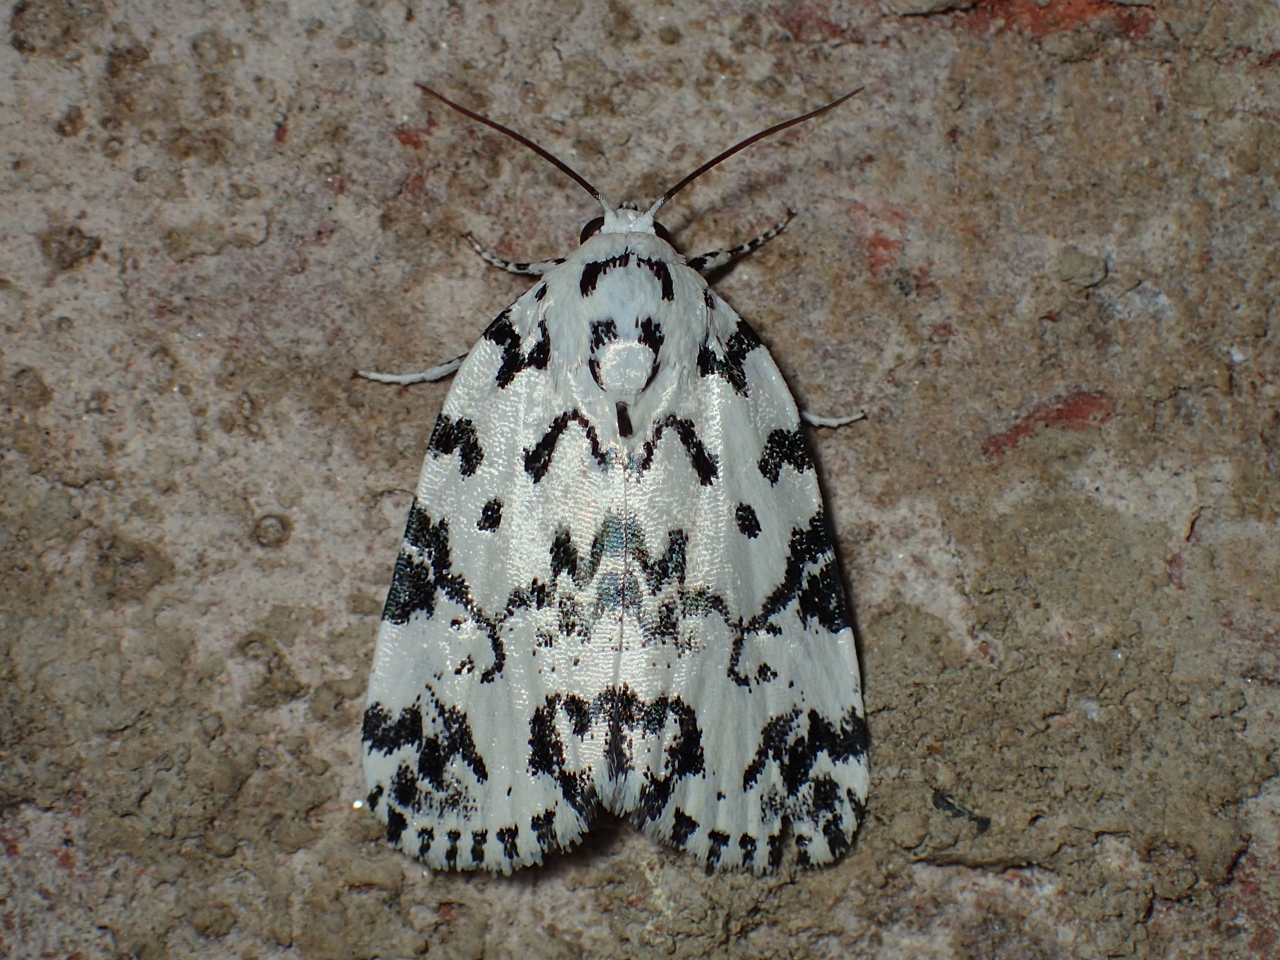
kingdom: Animalia
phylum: Arthropoda
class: Insecta
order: Lepidoptera
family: Noctuidae
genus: Polygrammate
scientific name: Polygrammate hebraeicum
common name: Hebrew moth
